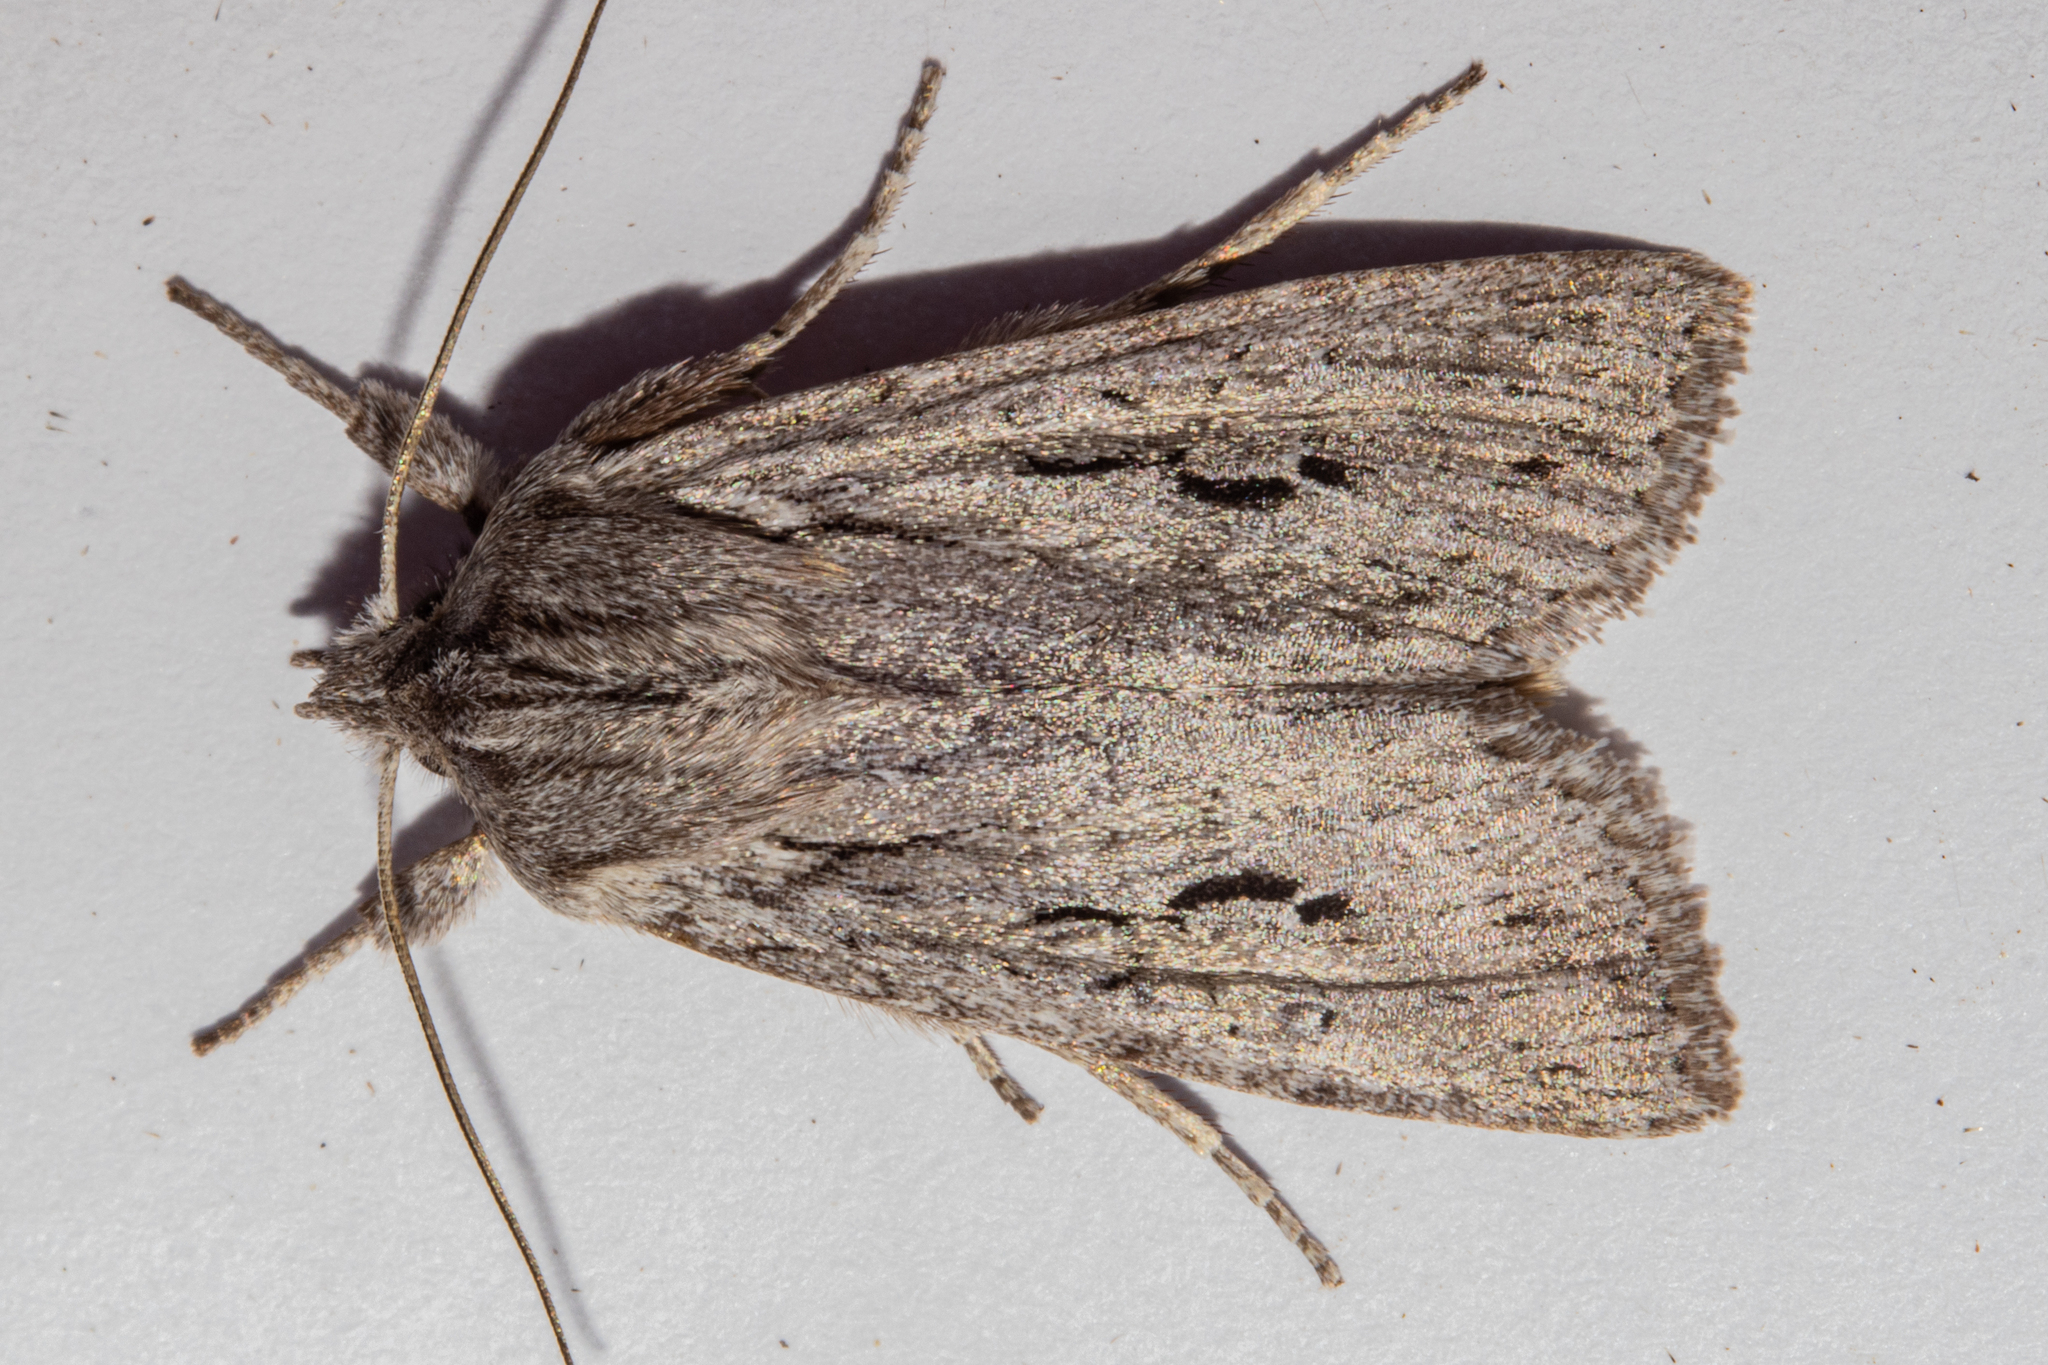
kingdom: Animalia
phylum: Arthropoda
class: Insecta
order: Lepidoptera
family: Noctuidae
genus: Physetica
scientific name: Physetica sequens
